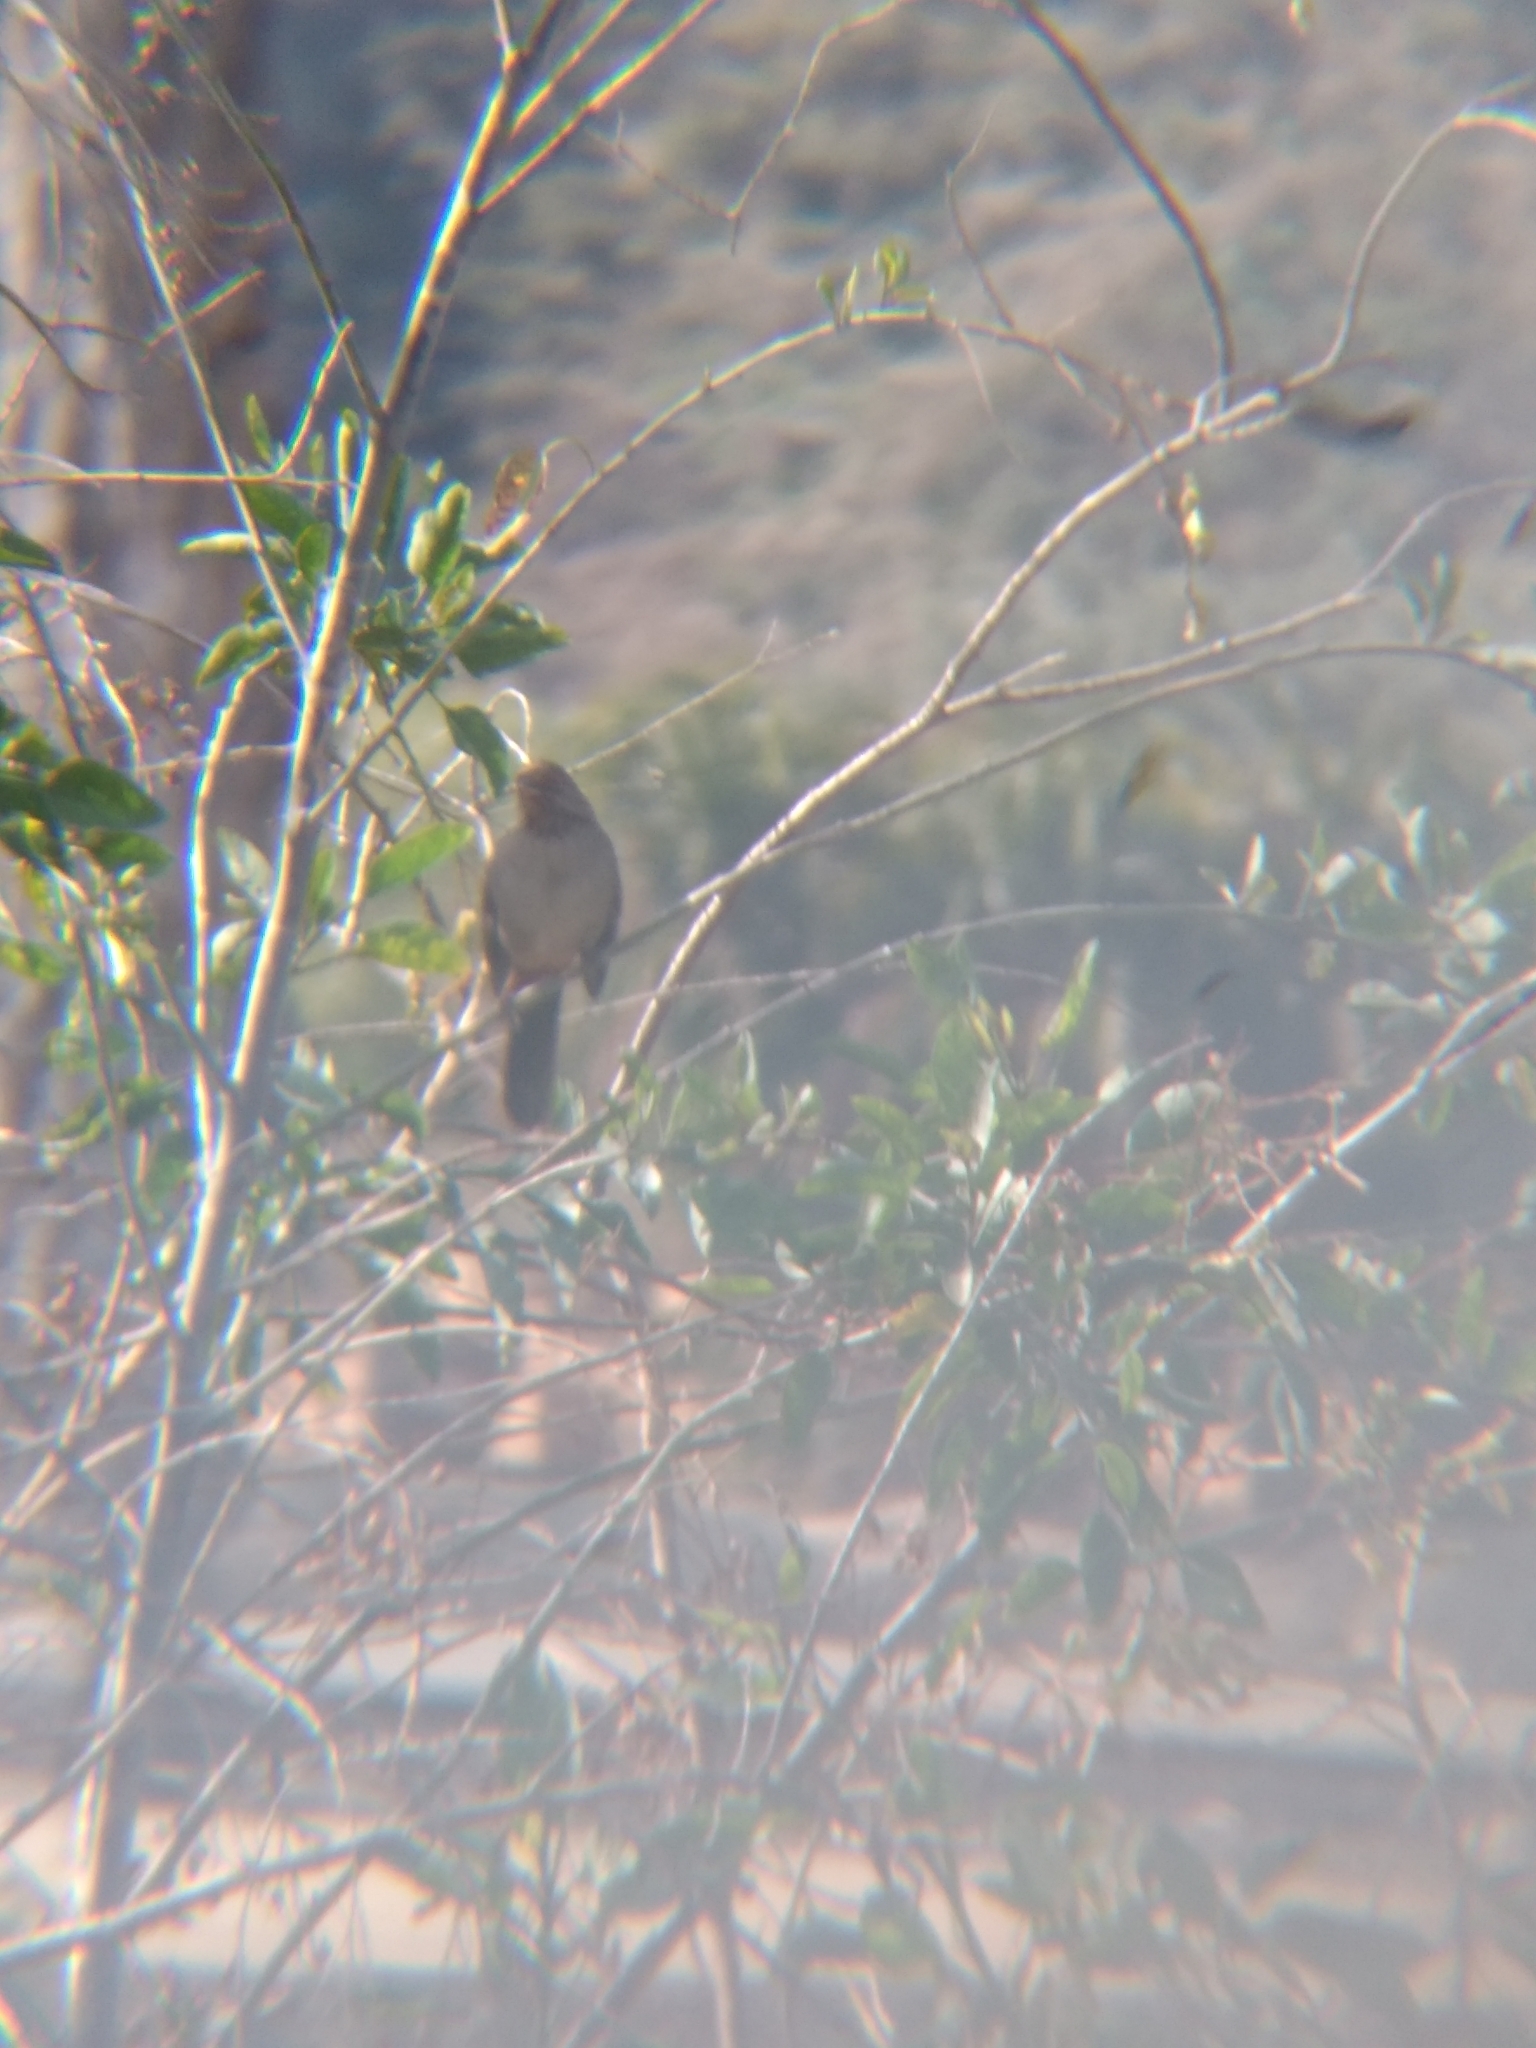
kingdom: Animalia
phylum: Chordata
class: Aves
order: Passeriformes
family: Passerellidae
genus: Melozone
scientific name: Melozone crissalis
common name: California towhee
